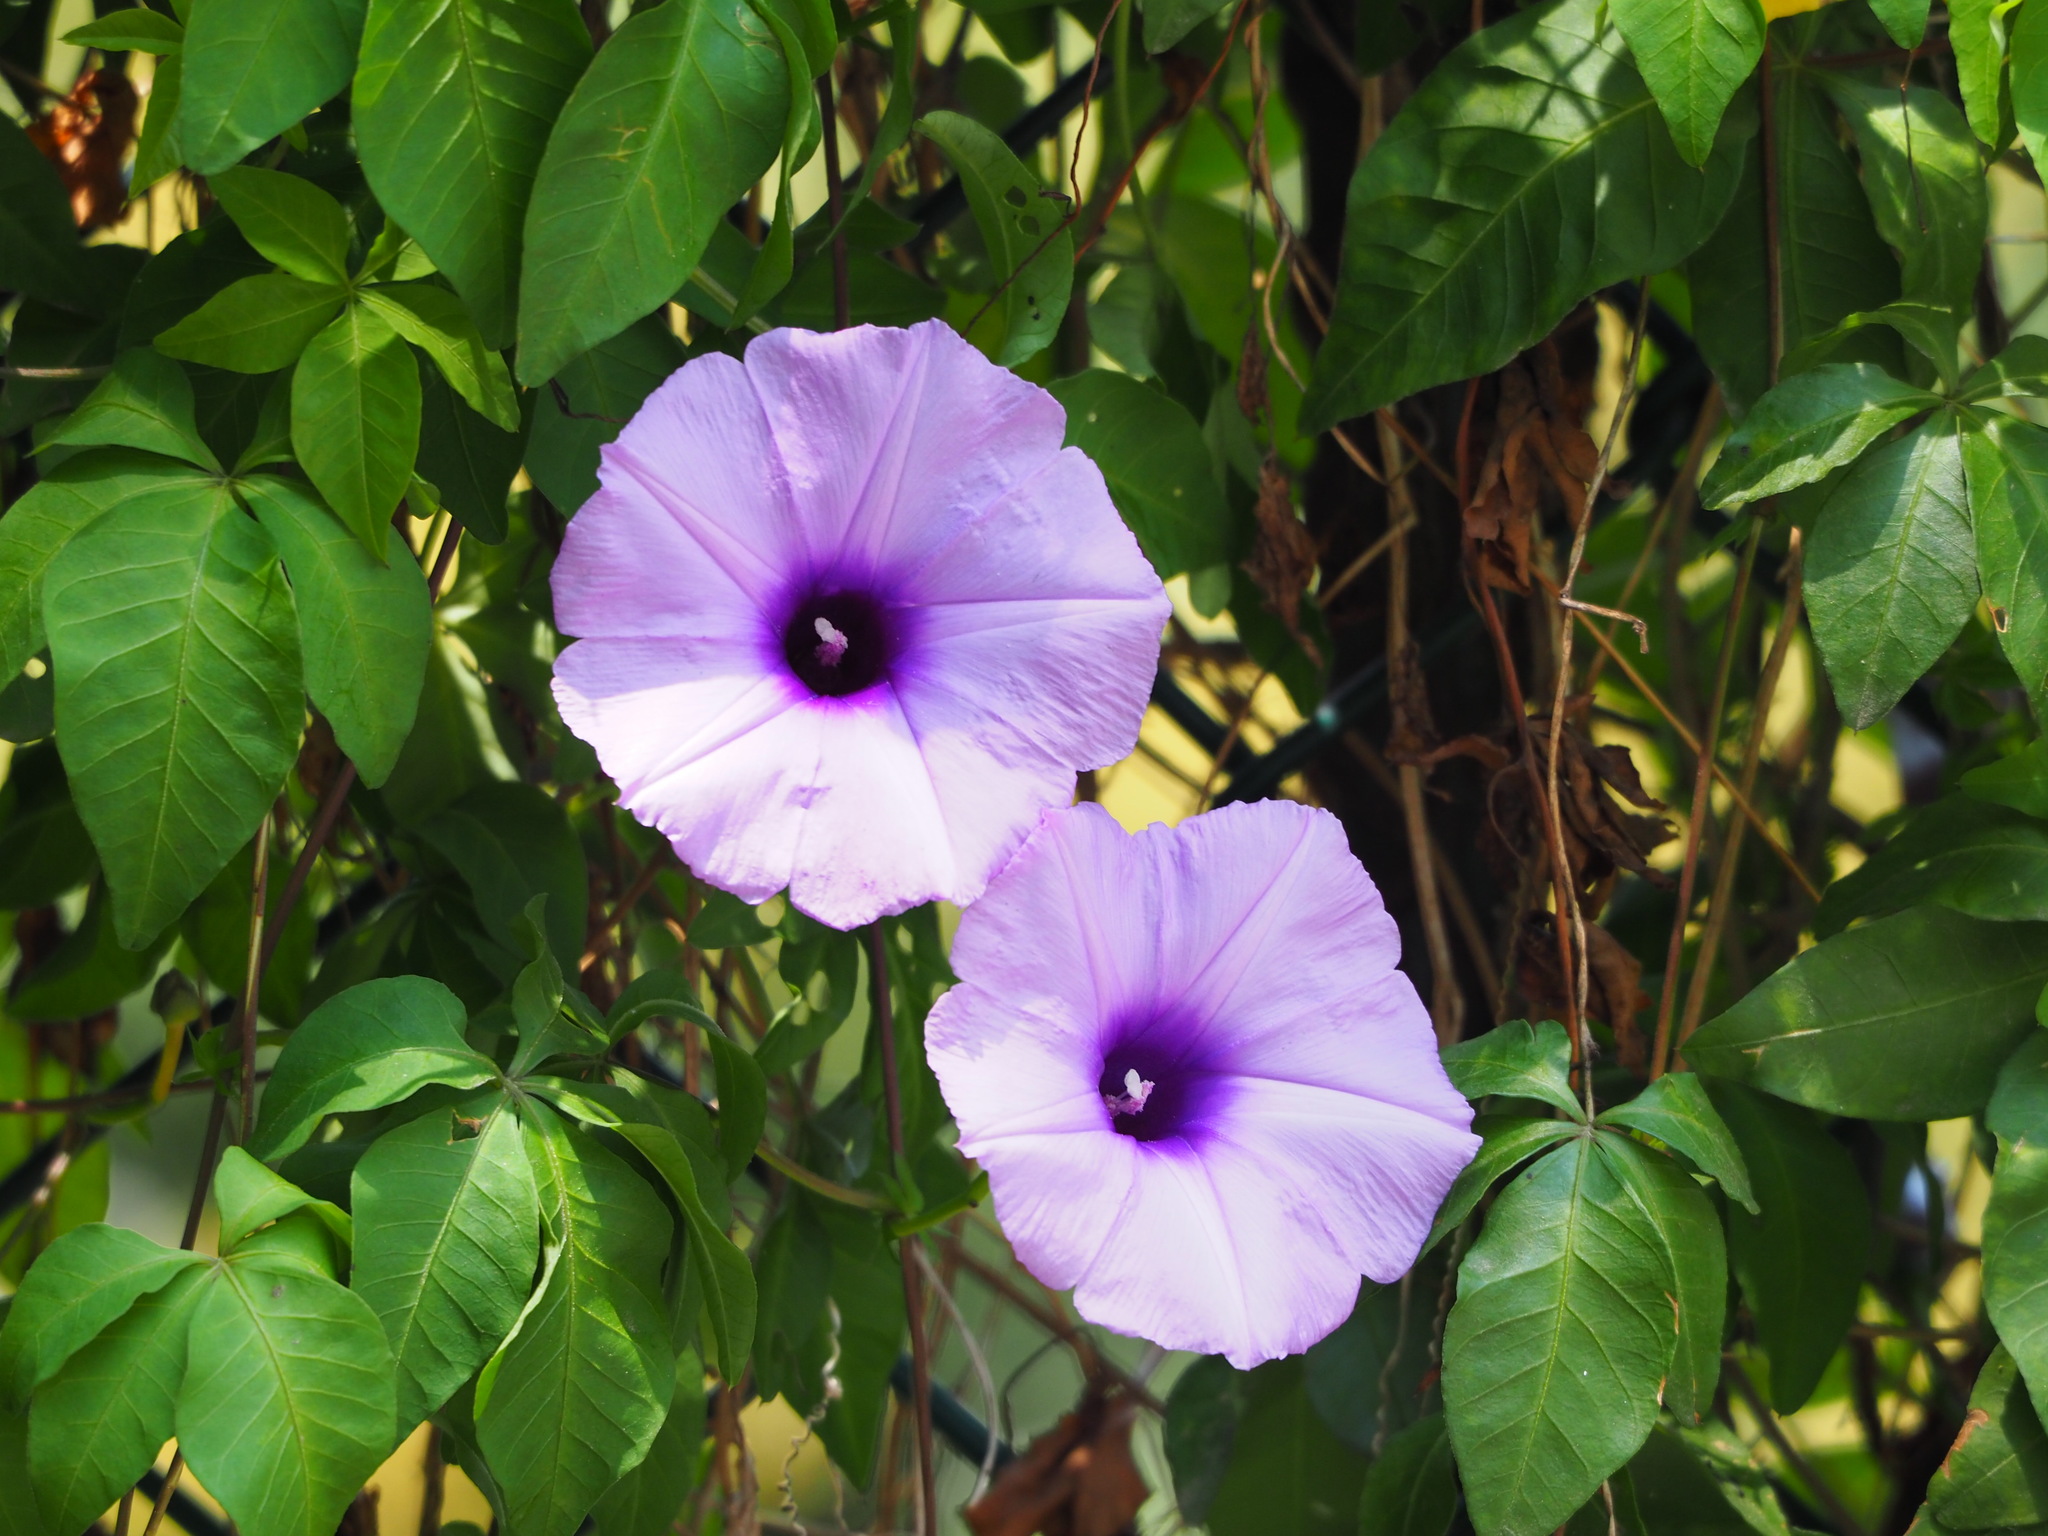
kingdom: Plantae
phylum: Tracheophyta
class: Magnoliopsida
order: Solanales
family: Convolvulaceae
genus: Ipomoea
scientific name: Ipomoea cairica
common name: Mile a minute vine
